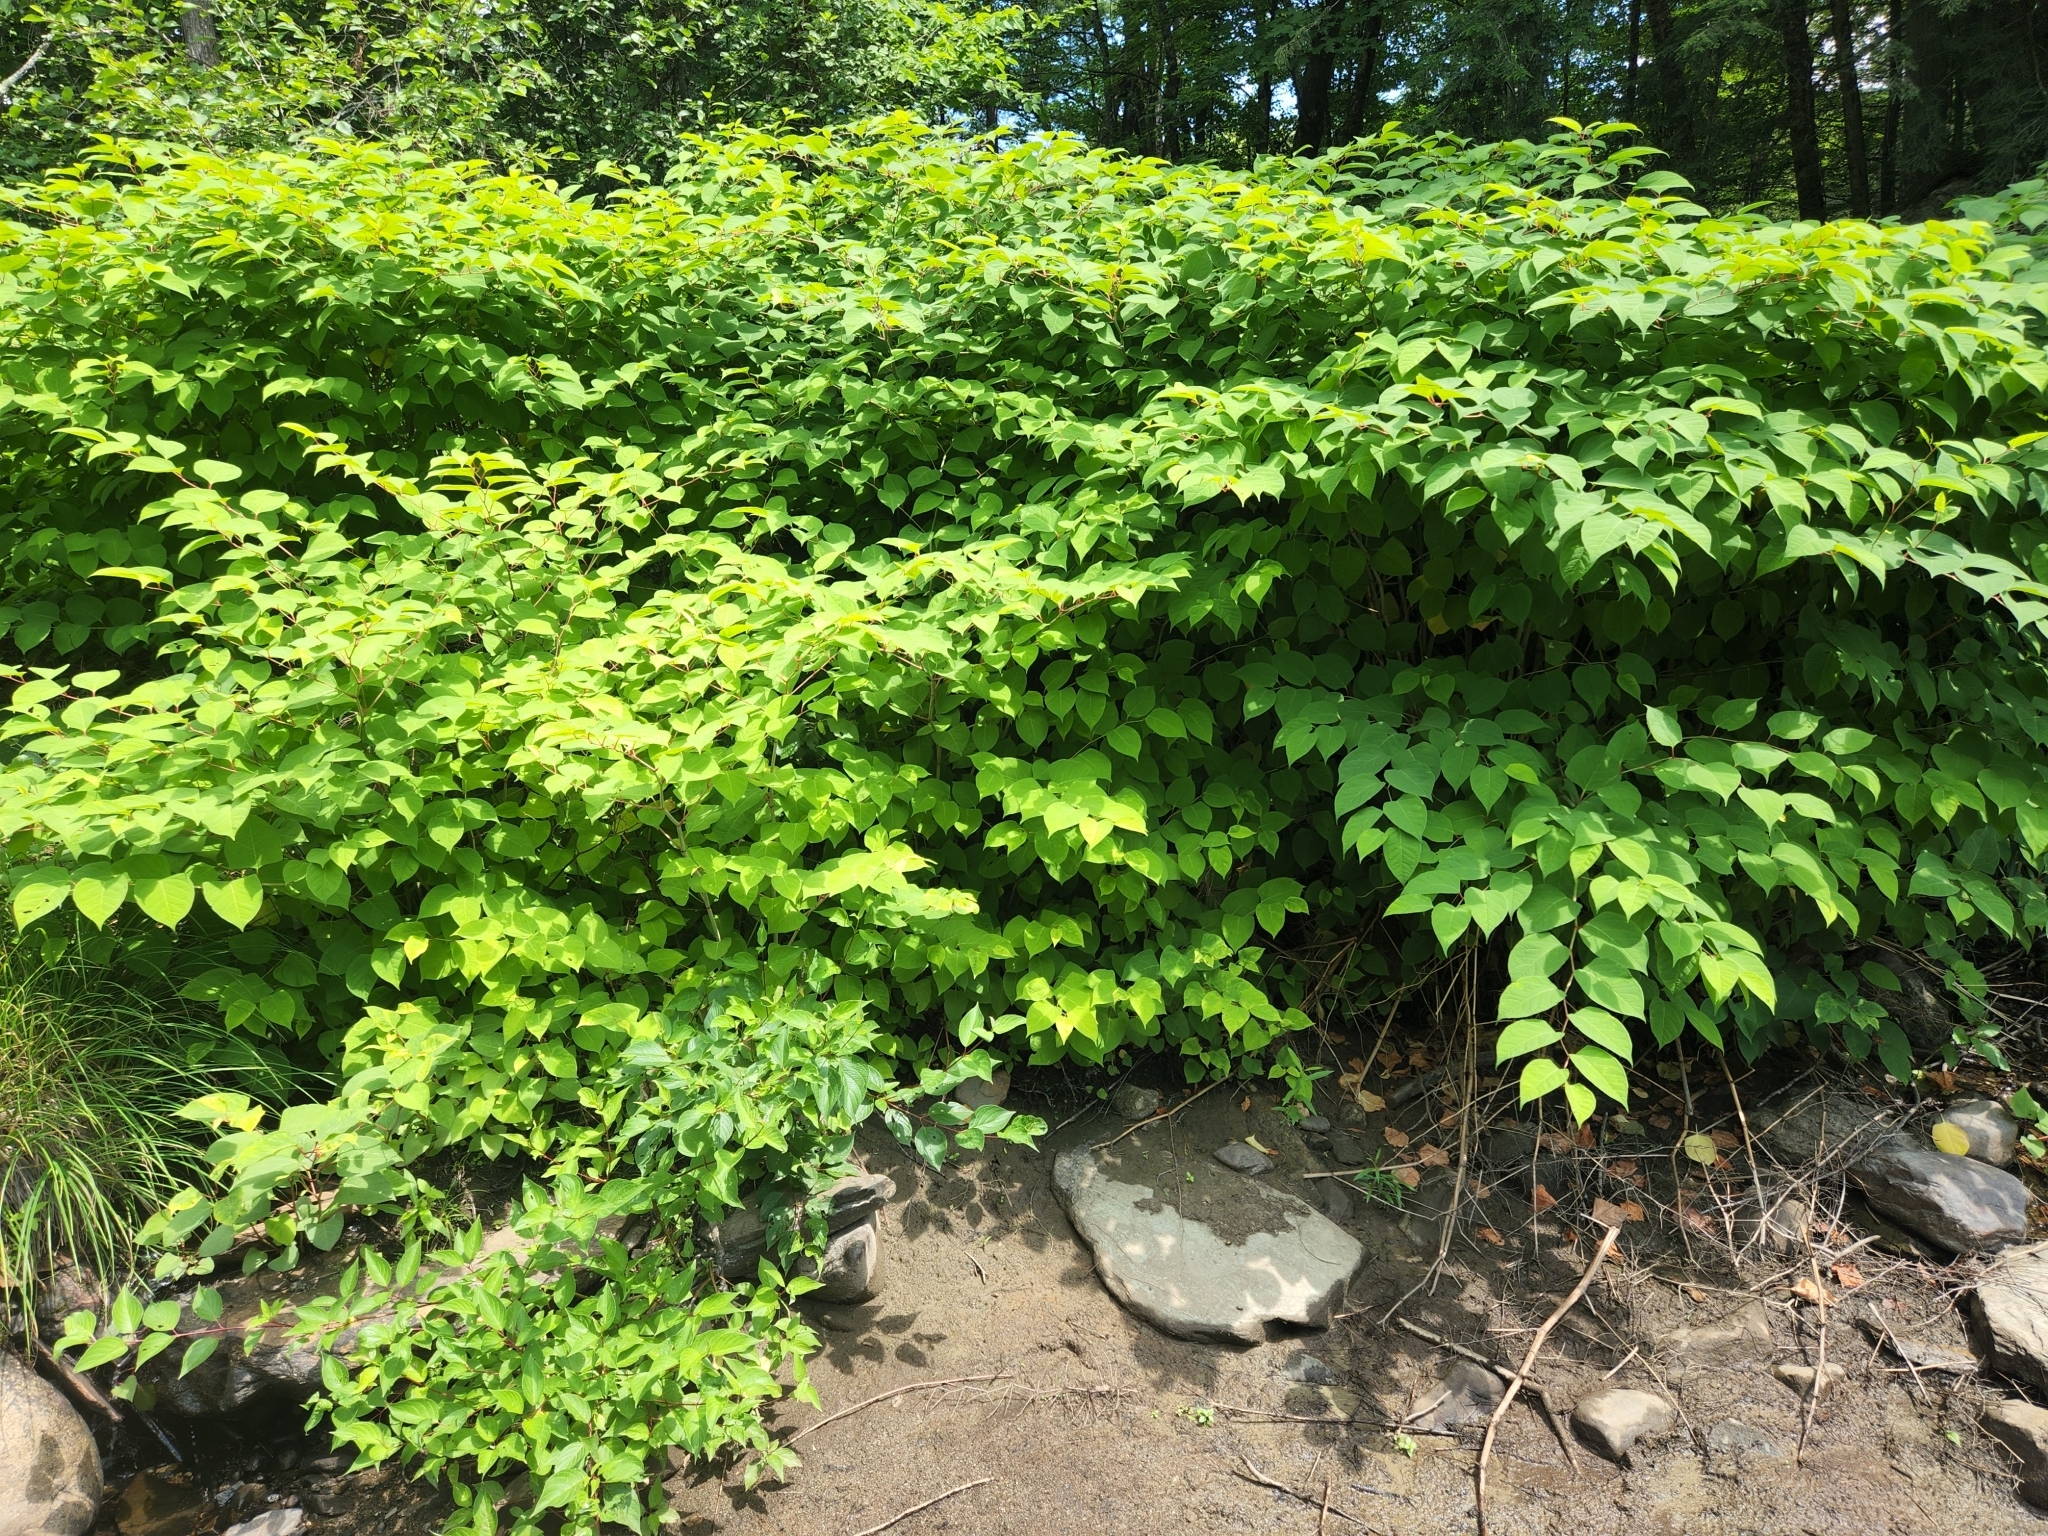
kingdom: Plantae
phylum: Tracheophyta
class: Magnoliopsida
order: Caryophyllales
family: Polygonaceae
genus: Reynoutria
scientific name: Reynoutria japonica
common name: Japanese knotweed
